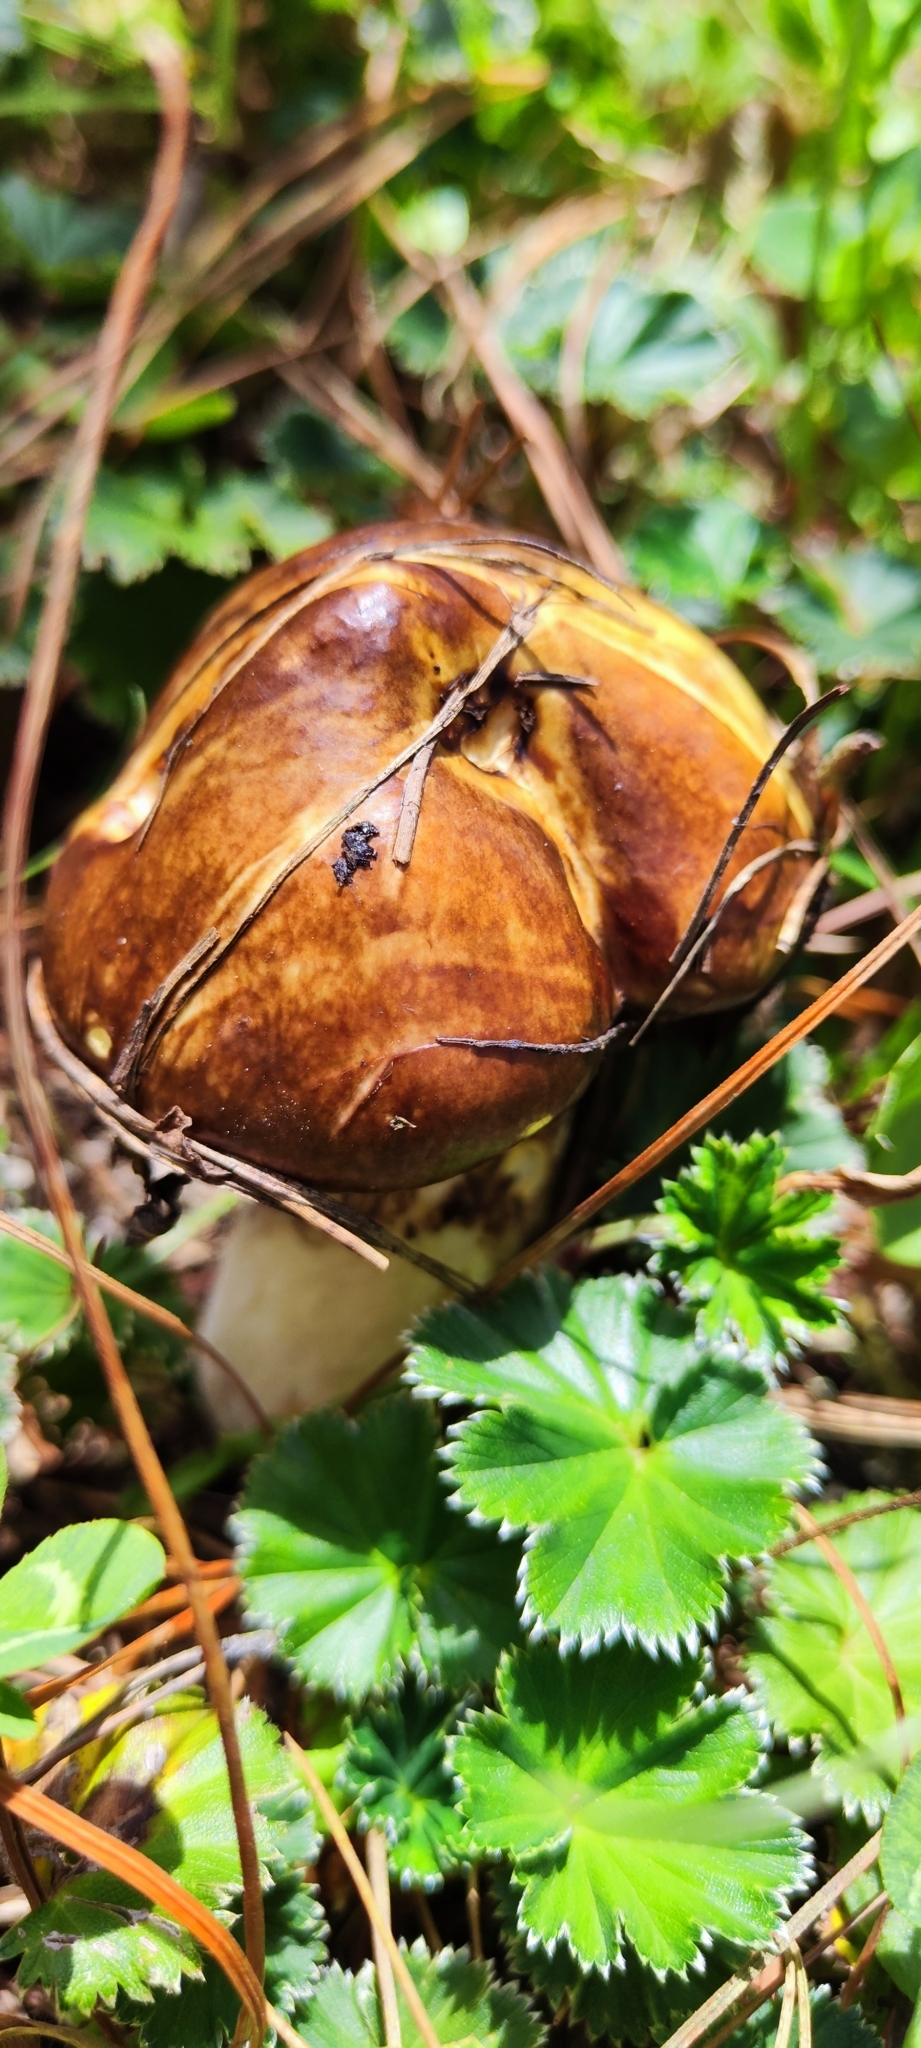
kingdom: Fungi
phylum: Basidiomycota
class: Agaricomycetes
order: Boletales
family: Suillaceae
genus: Suillus
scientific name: Suillus luteus
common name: Slippery jack
